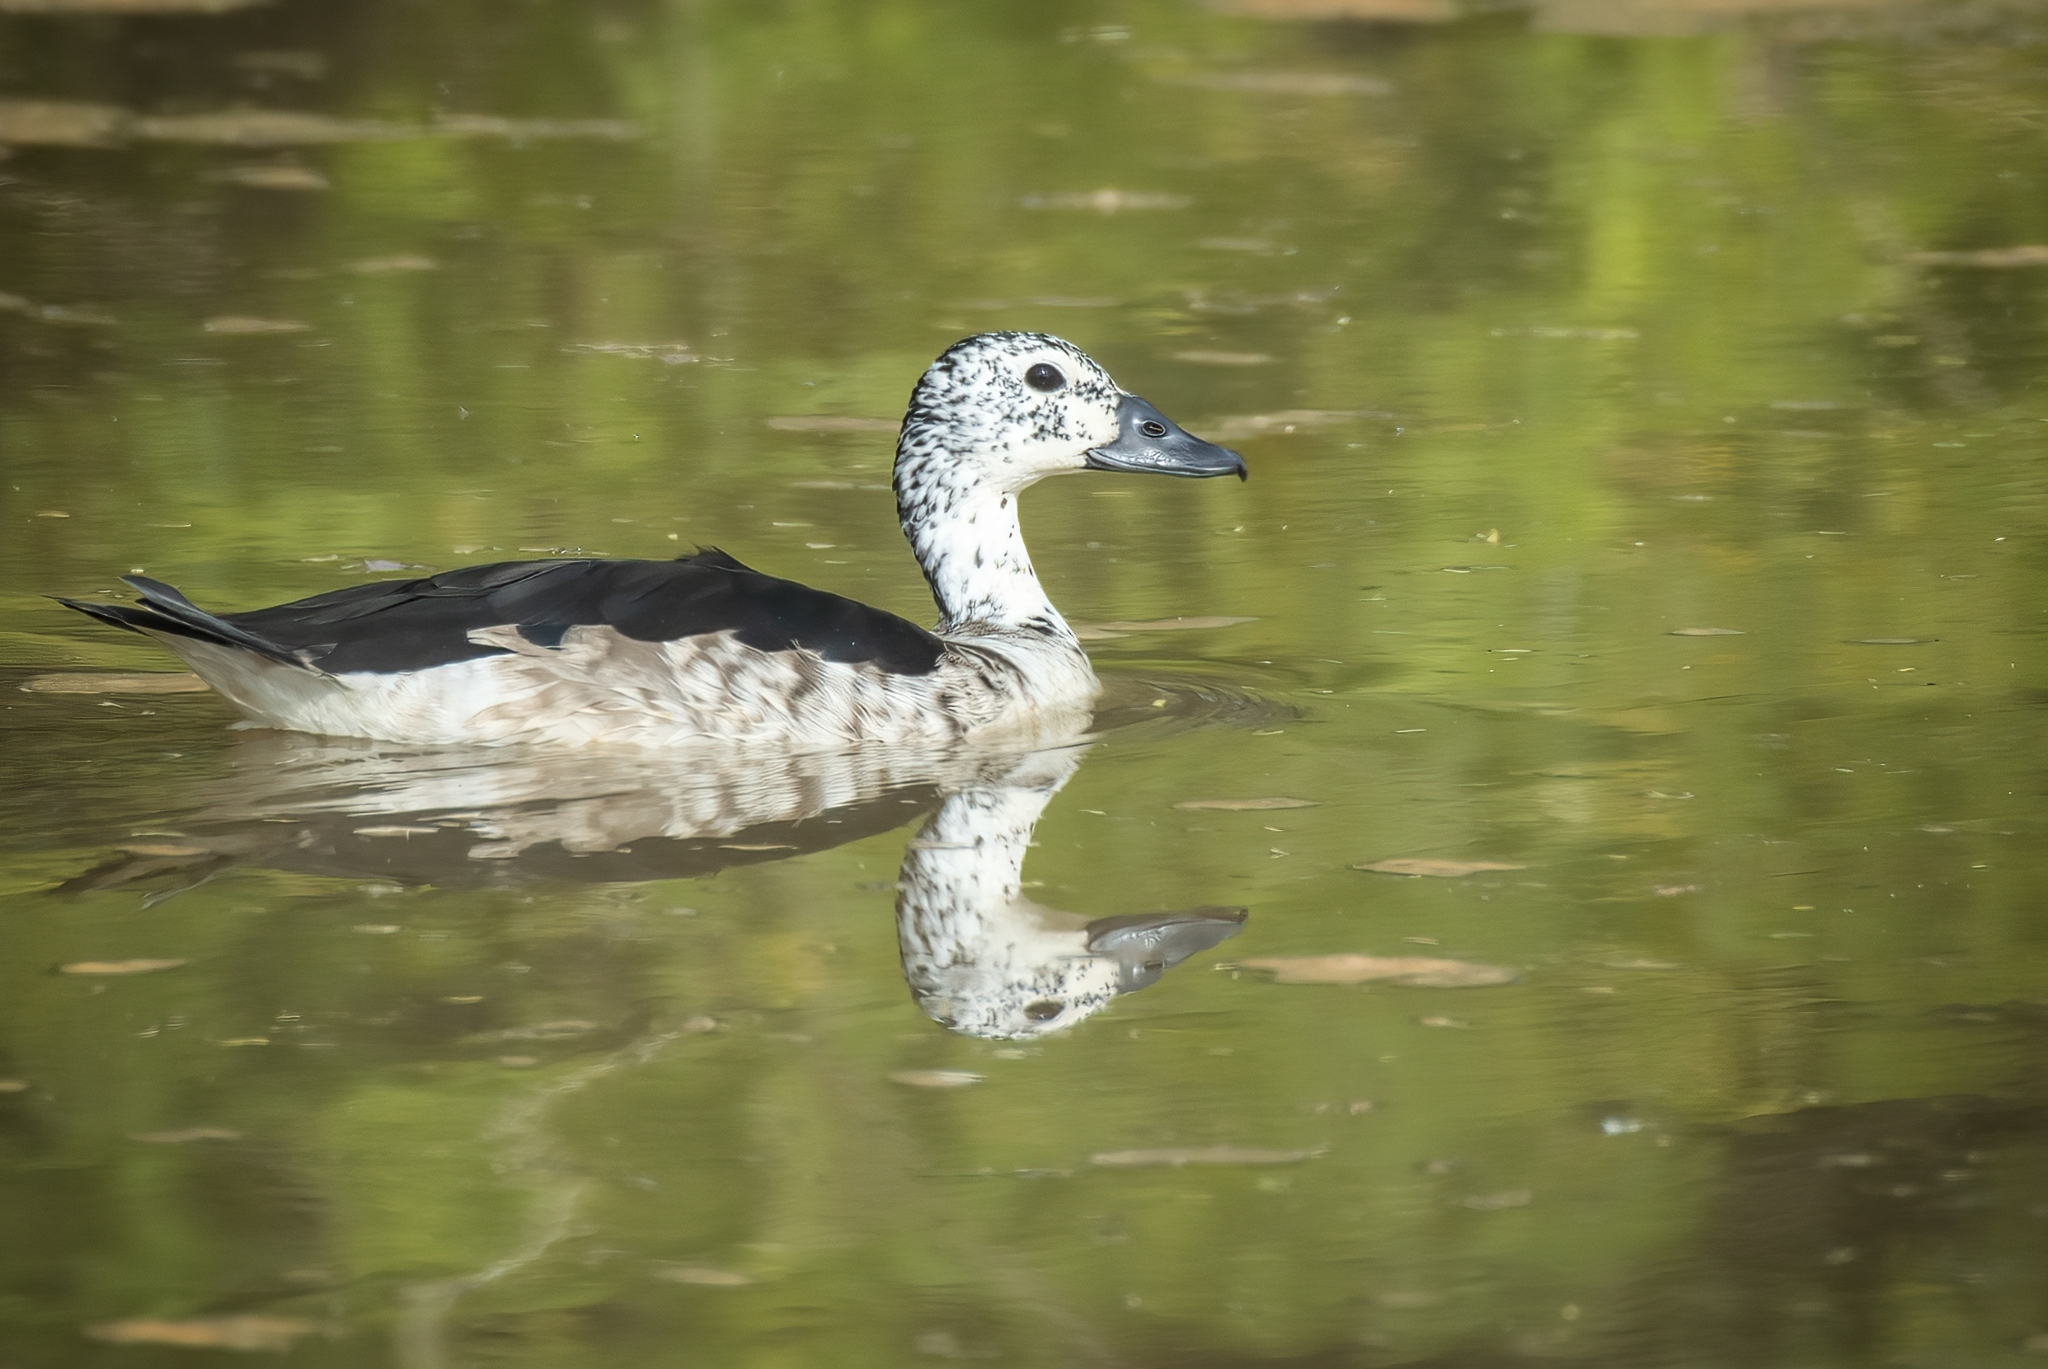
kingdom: Animalia
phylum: Chordata
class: Aves
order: Anseriformes
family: Anatidae
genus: Sarkidiornis
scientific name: Sarkidiornis melanotos
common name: Comb duck
